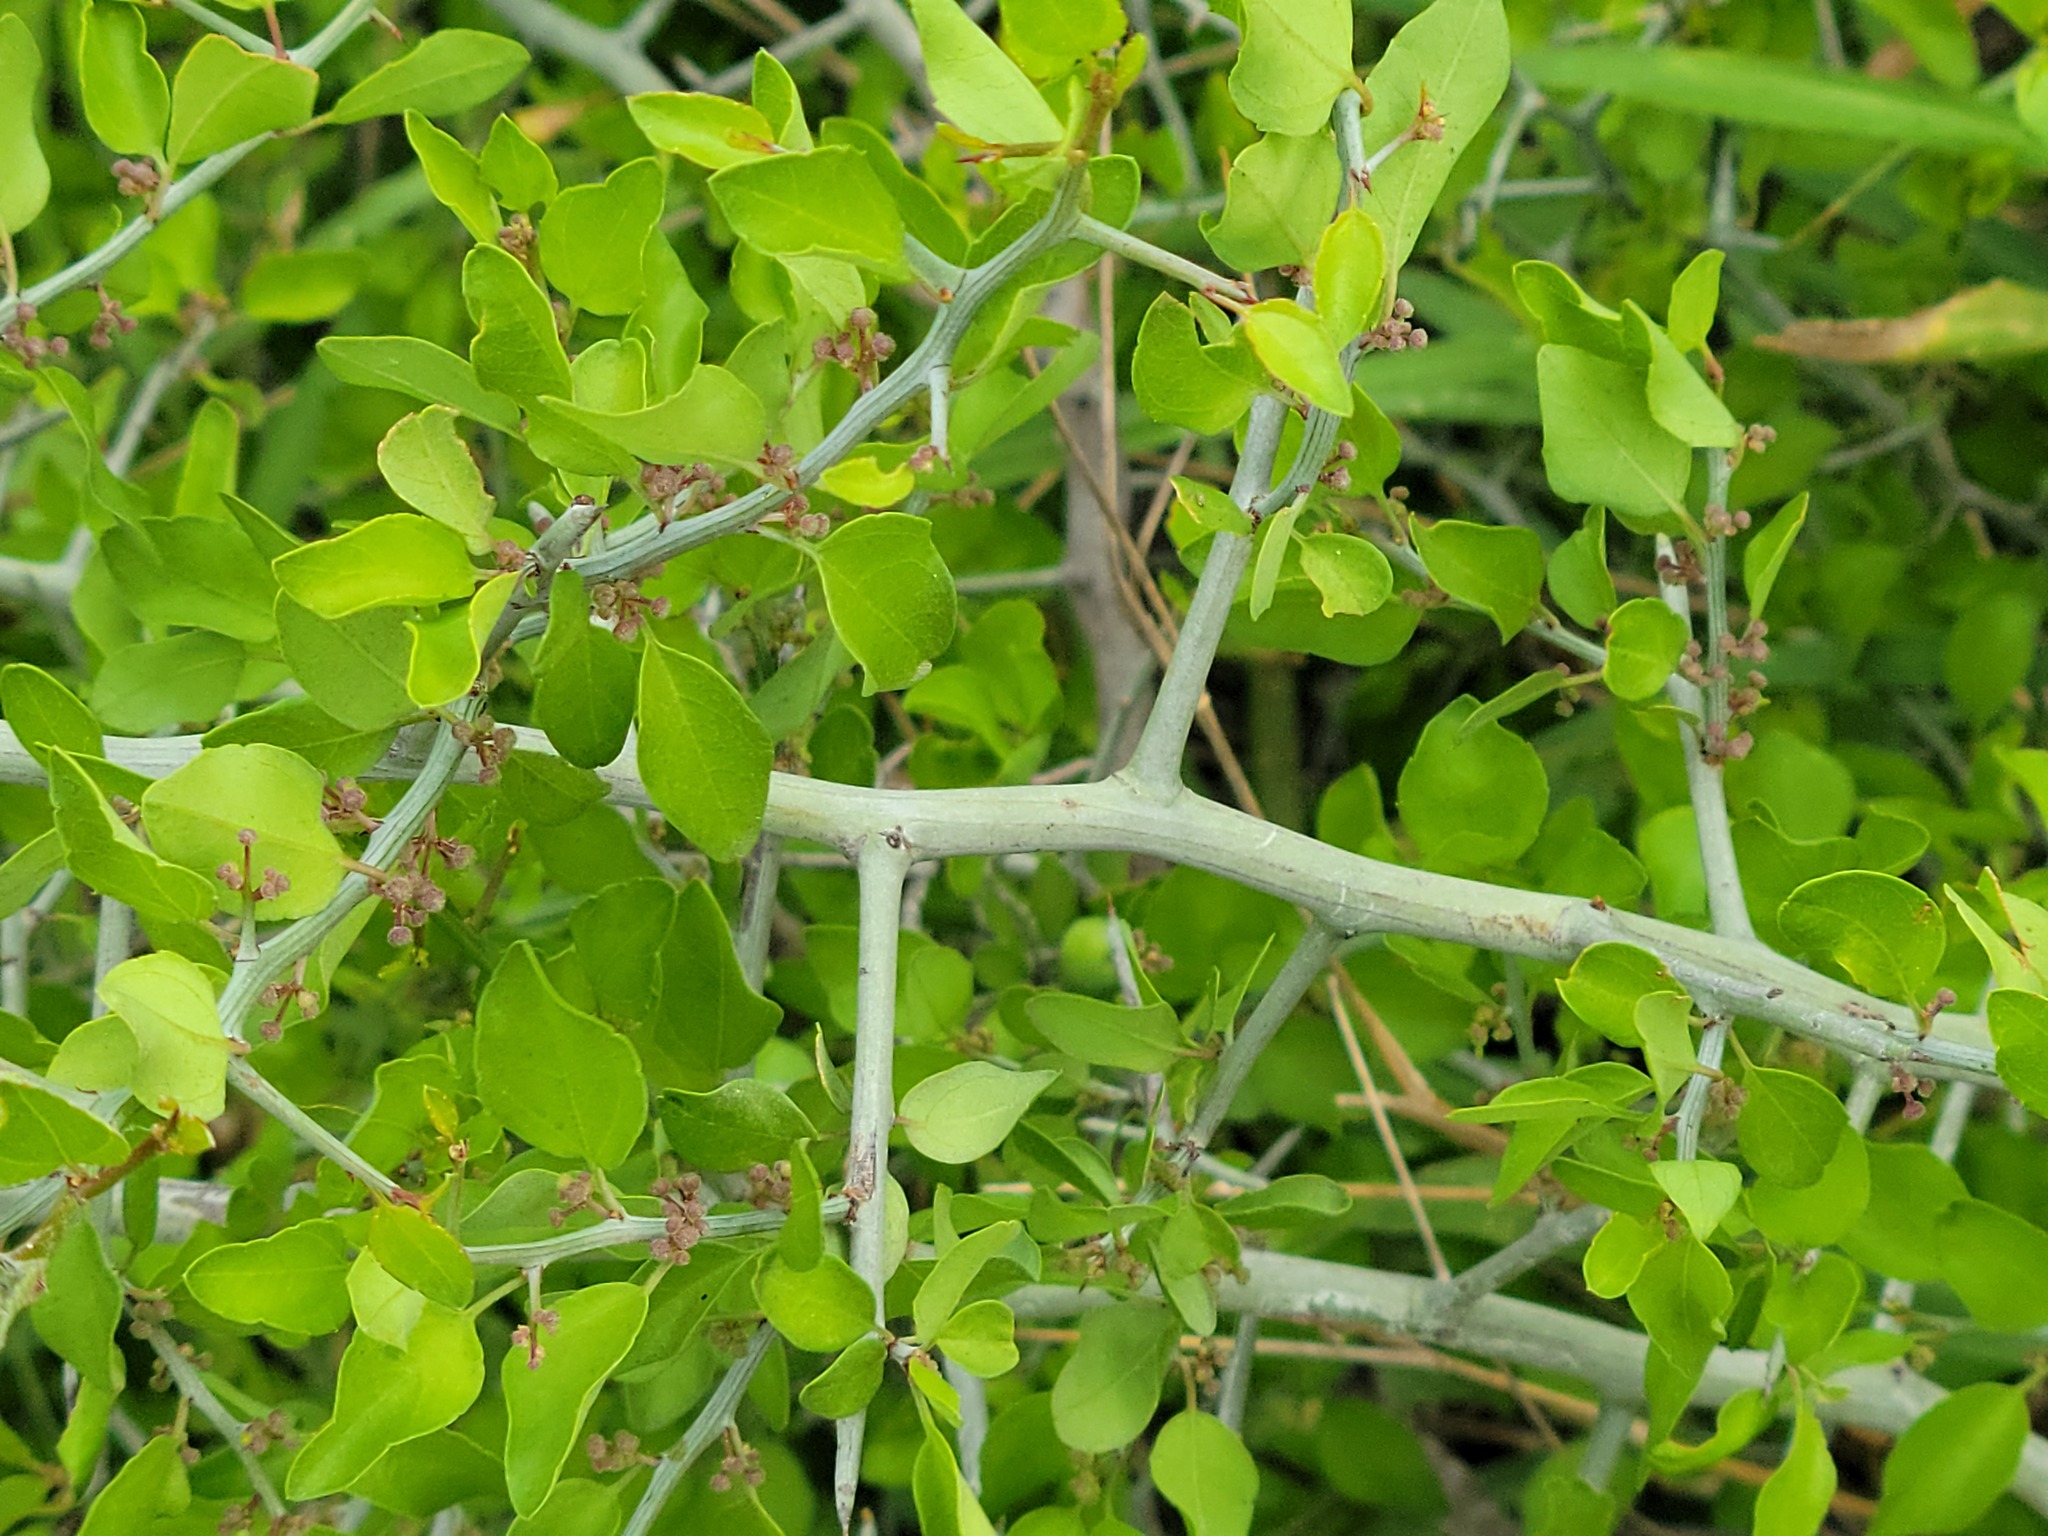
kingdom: Plantae
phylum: Tracheophyta
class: Magnoliopsida
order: Rosales
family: Rhamnaceae
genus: Sarcomphalus
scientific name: Sarcomphalus obtusifolius
